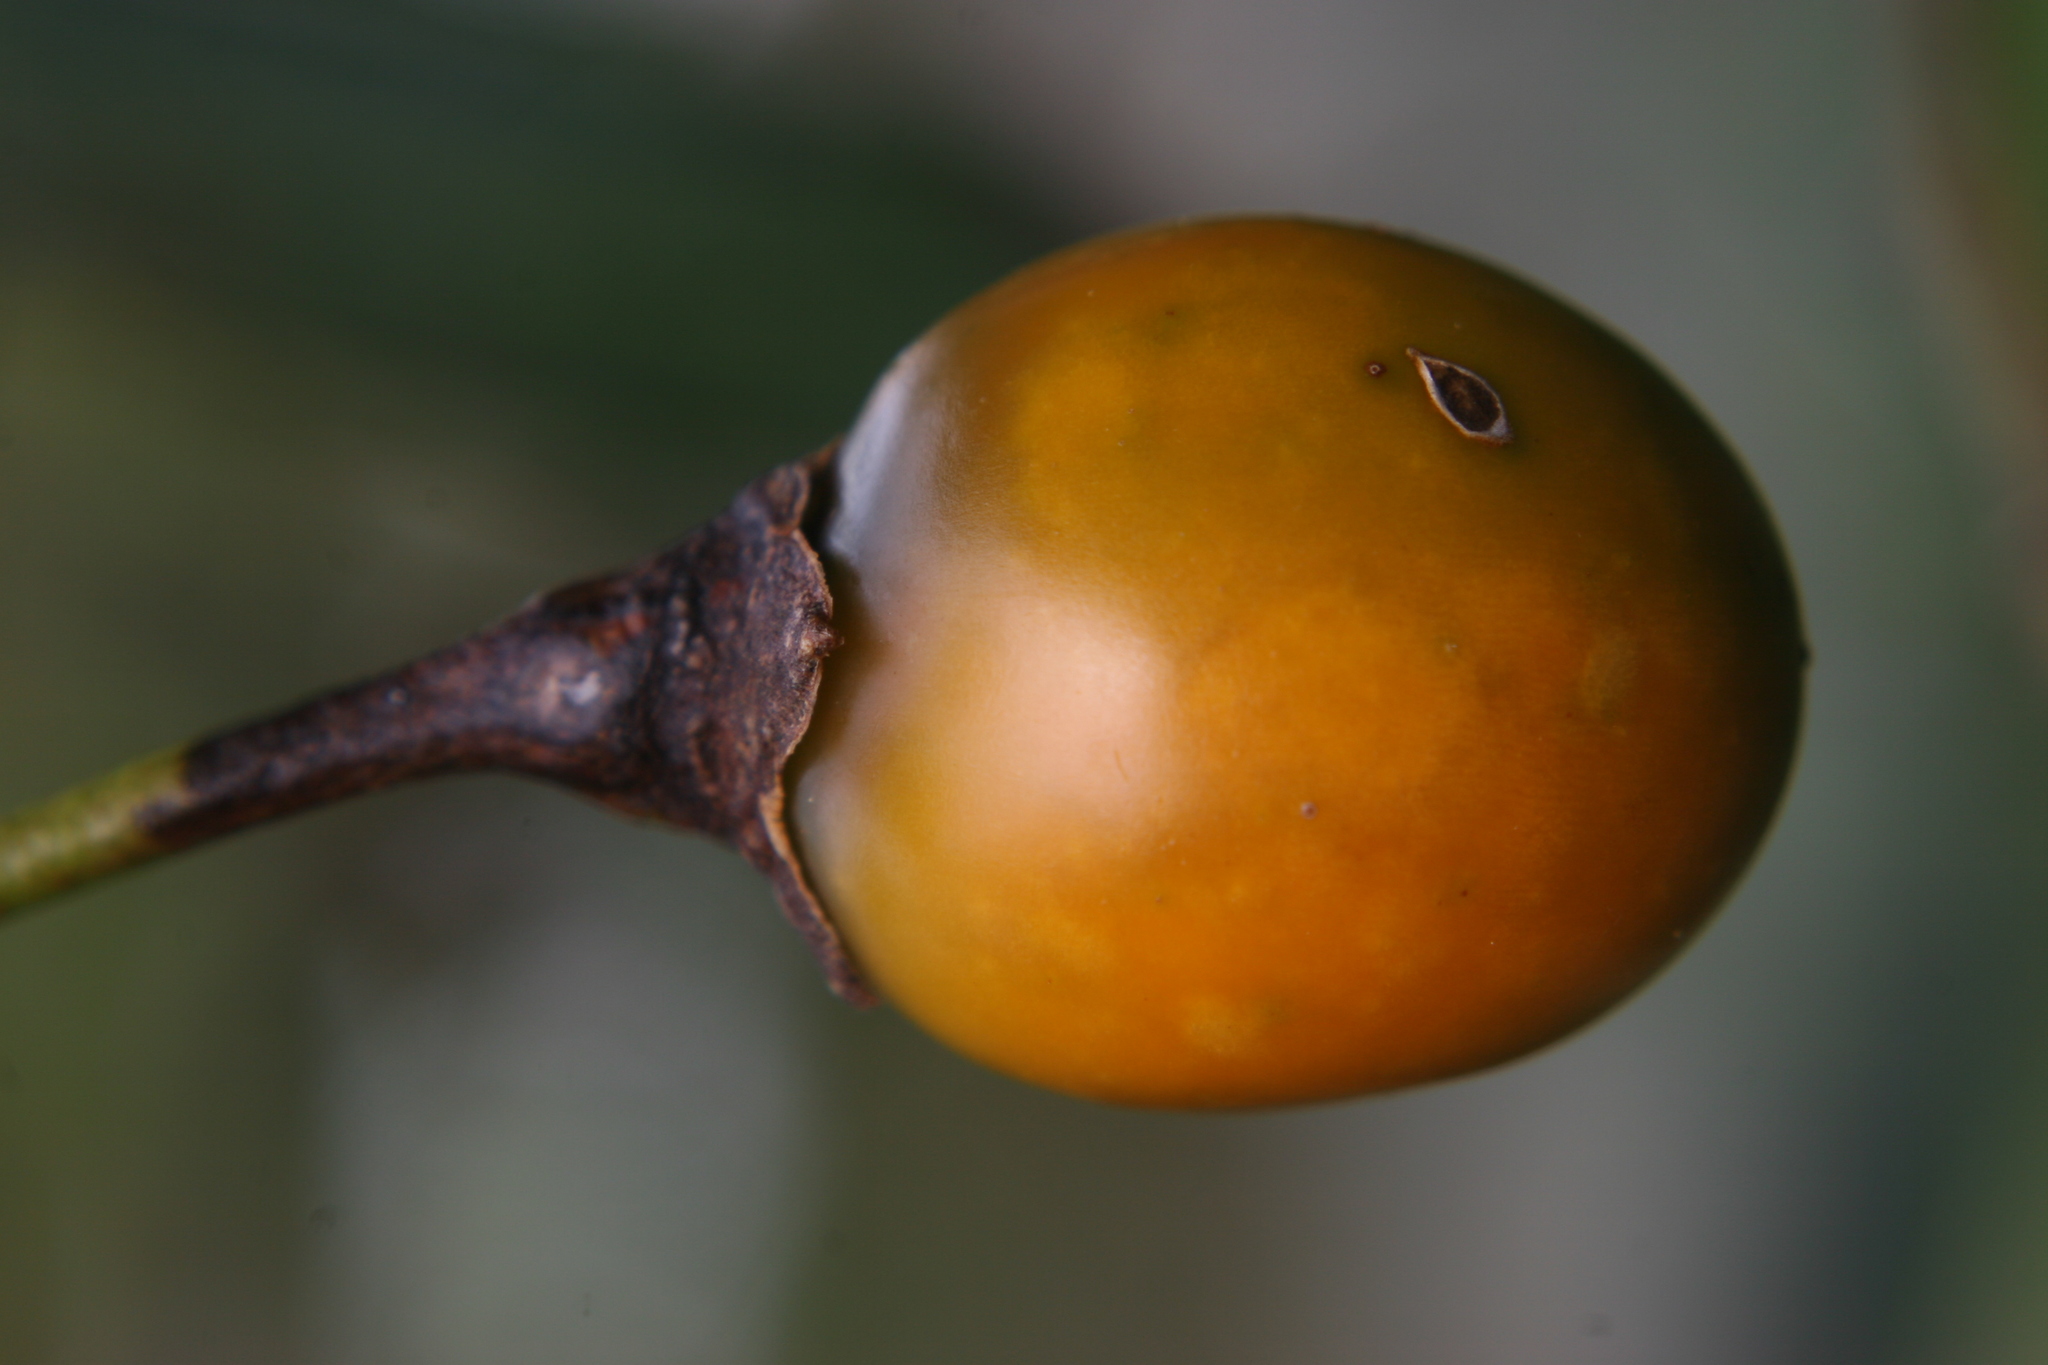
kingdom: Plantae
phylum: Tracheophyta
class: Magnoliopsida
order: Solanales
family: Solanaceae
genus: Solanum
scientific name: Solanum laciniatum
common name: Kangaroo-apple
